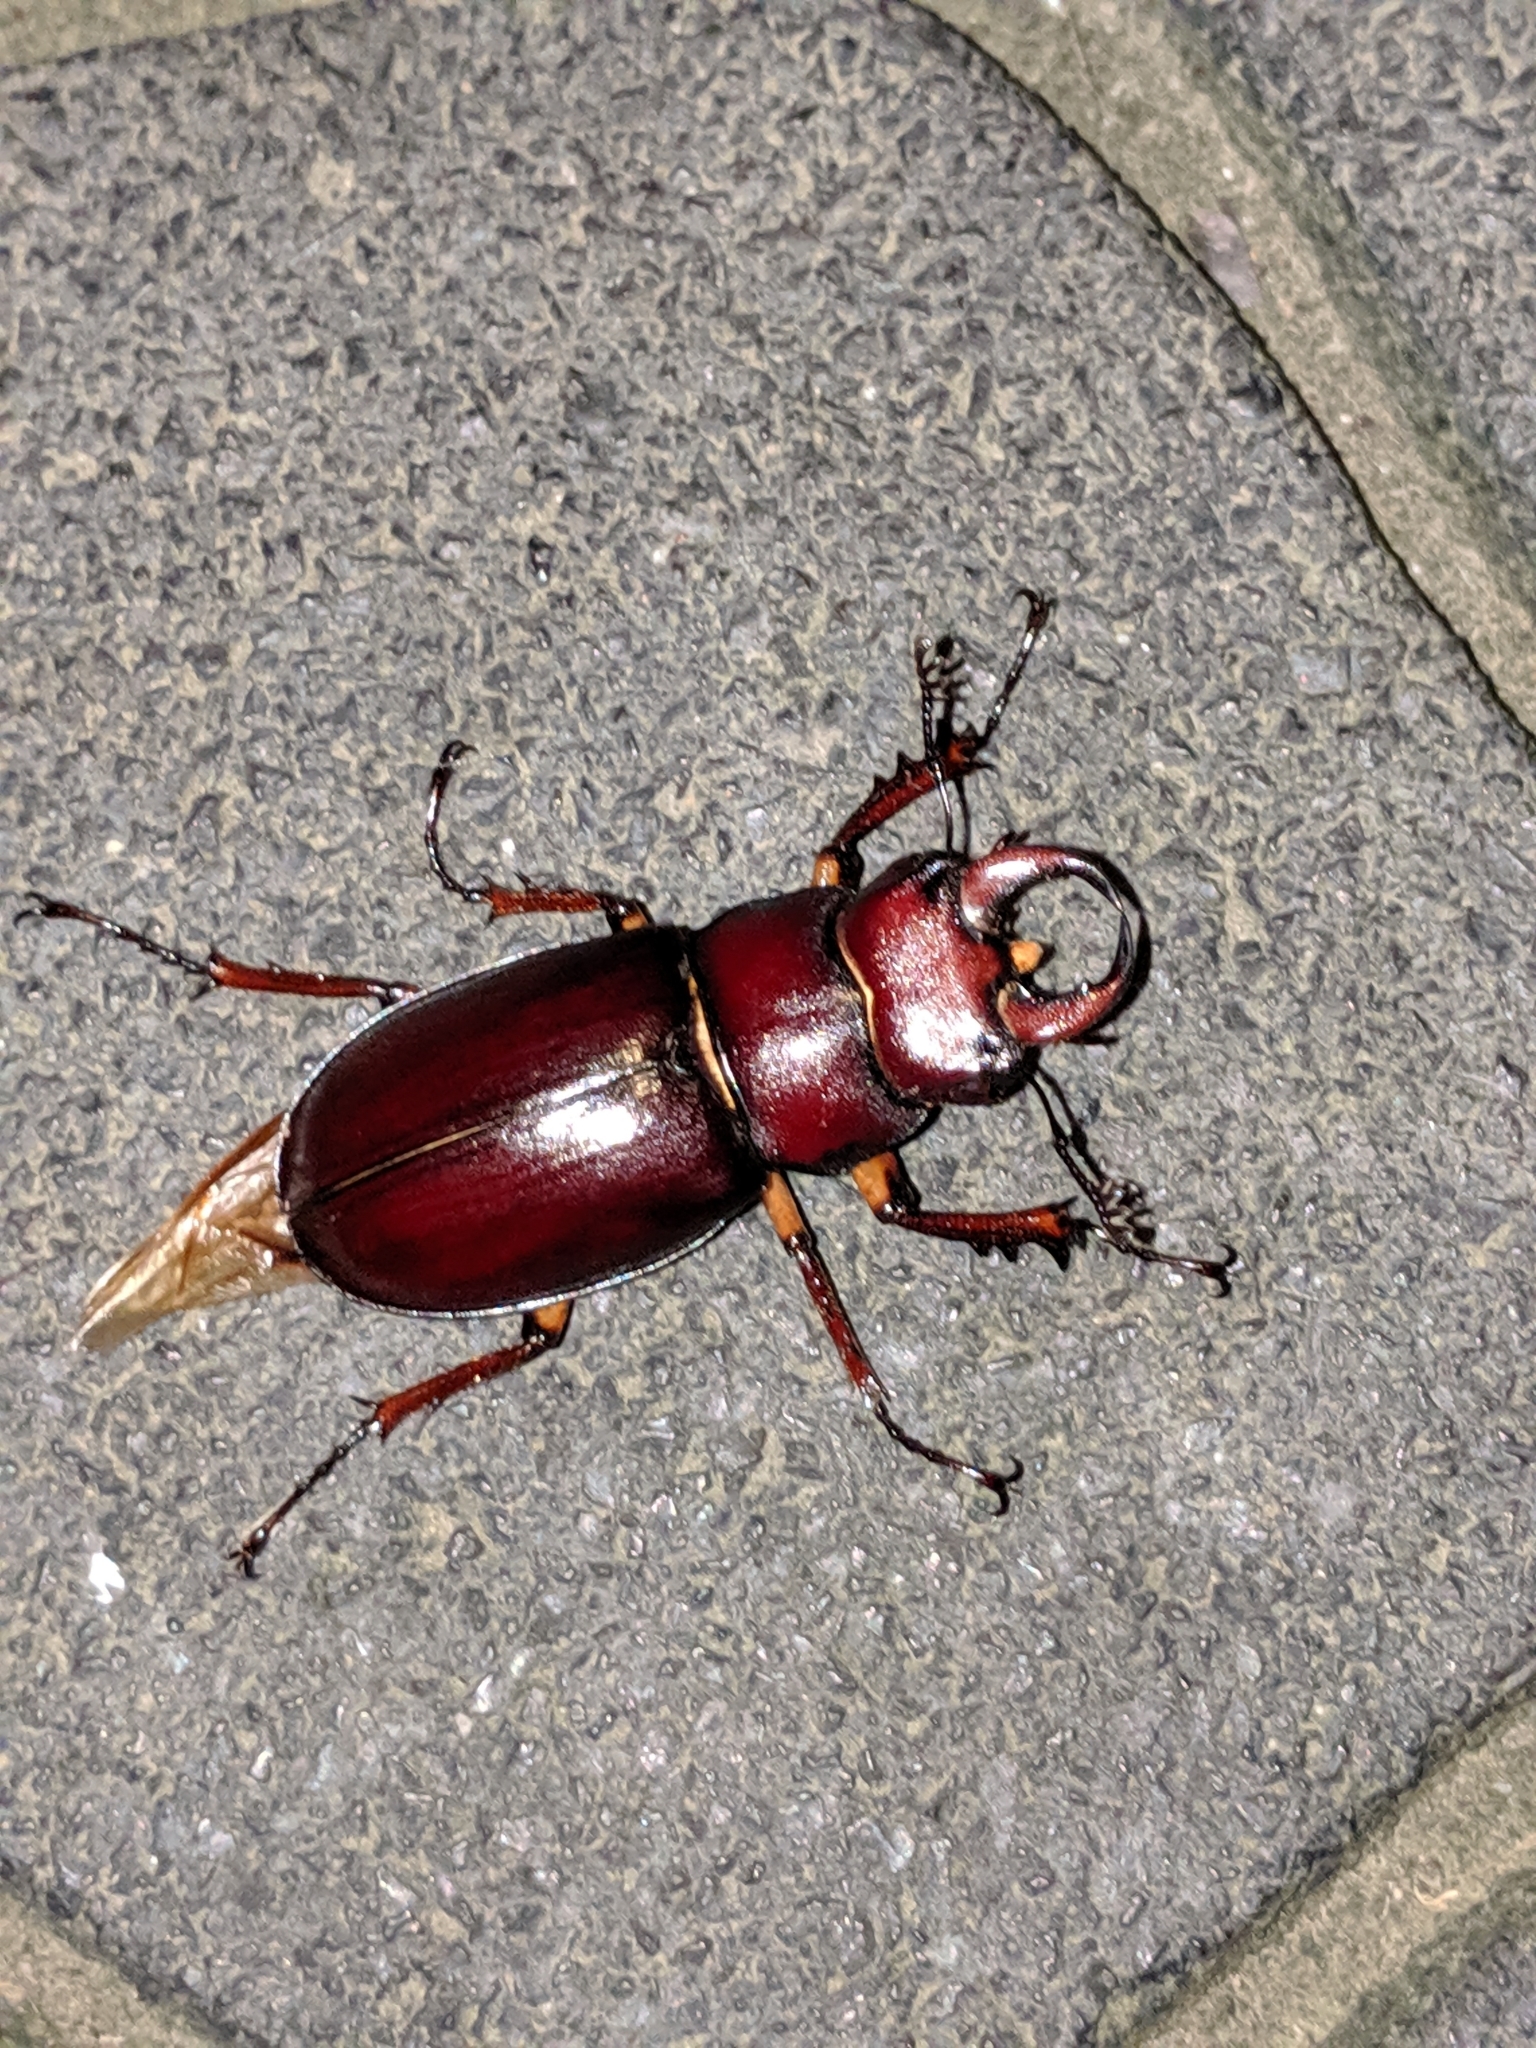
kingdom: Animalia
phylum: Arthropoda
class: Insecta
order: Coleoptera
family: Lucanidae
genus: Lucanus
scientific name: Lucanus capreolus
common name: Stag beetle
